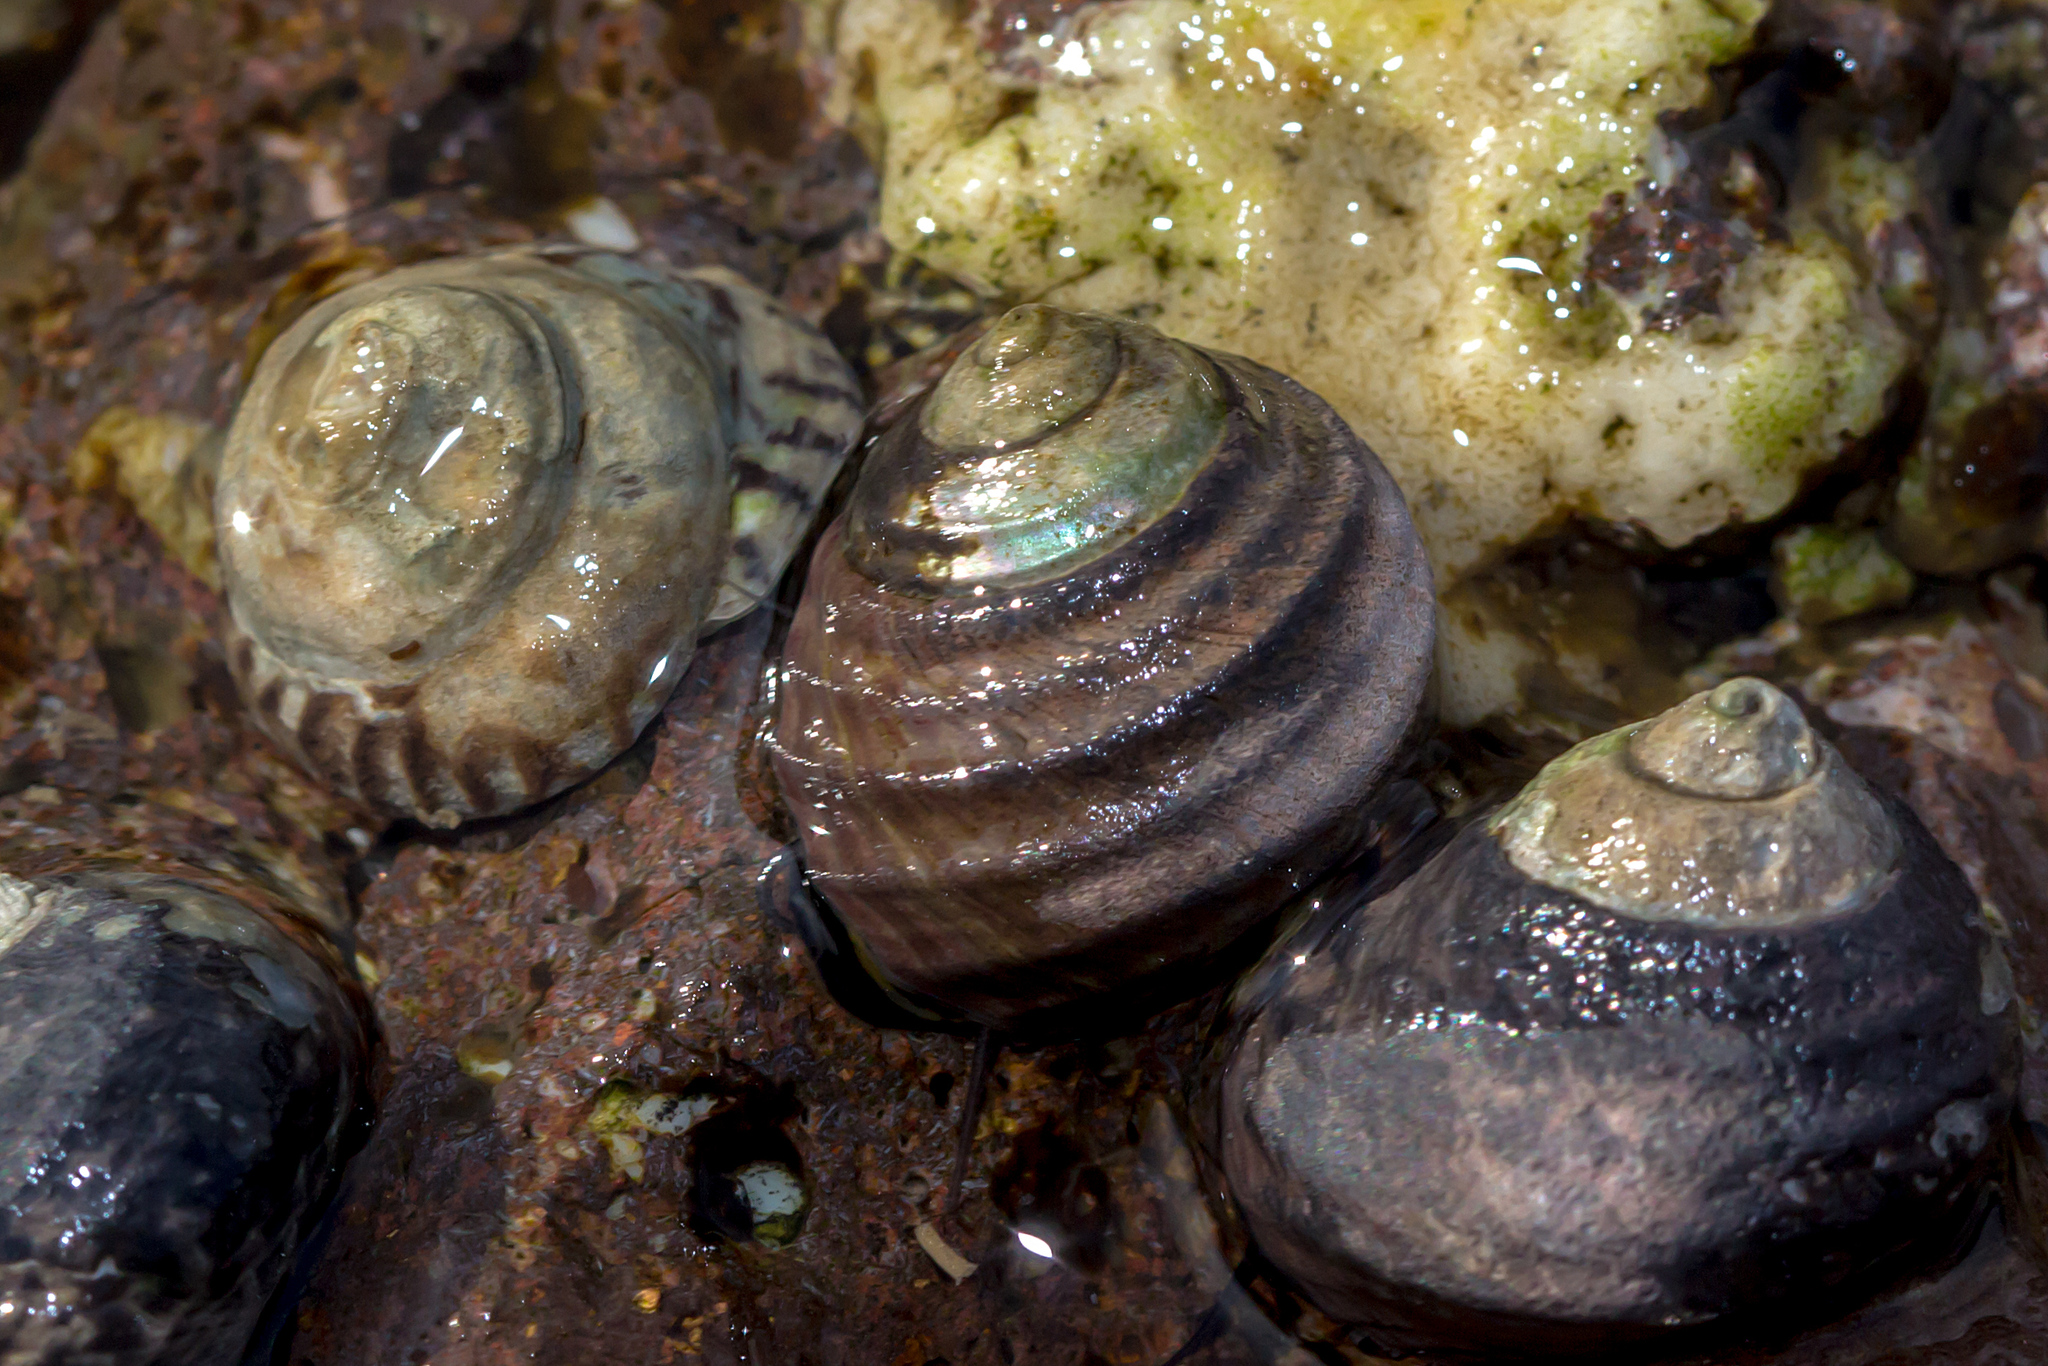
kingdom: Animalia
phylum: Mollusca
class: Gastropoda
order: Trochida
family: Trochidae
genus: Austrocochlea
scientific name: Austrocochlea constricta
